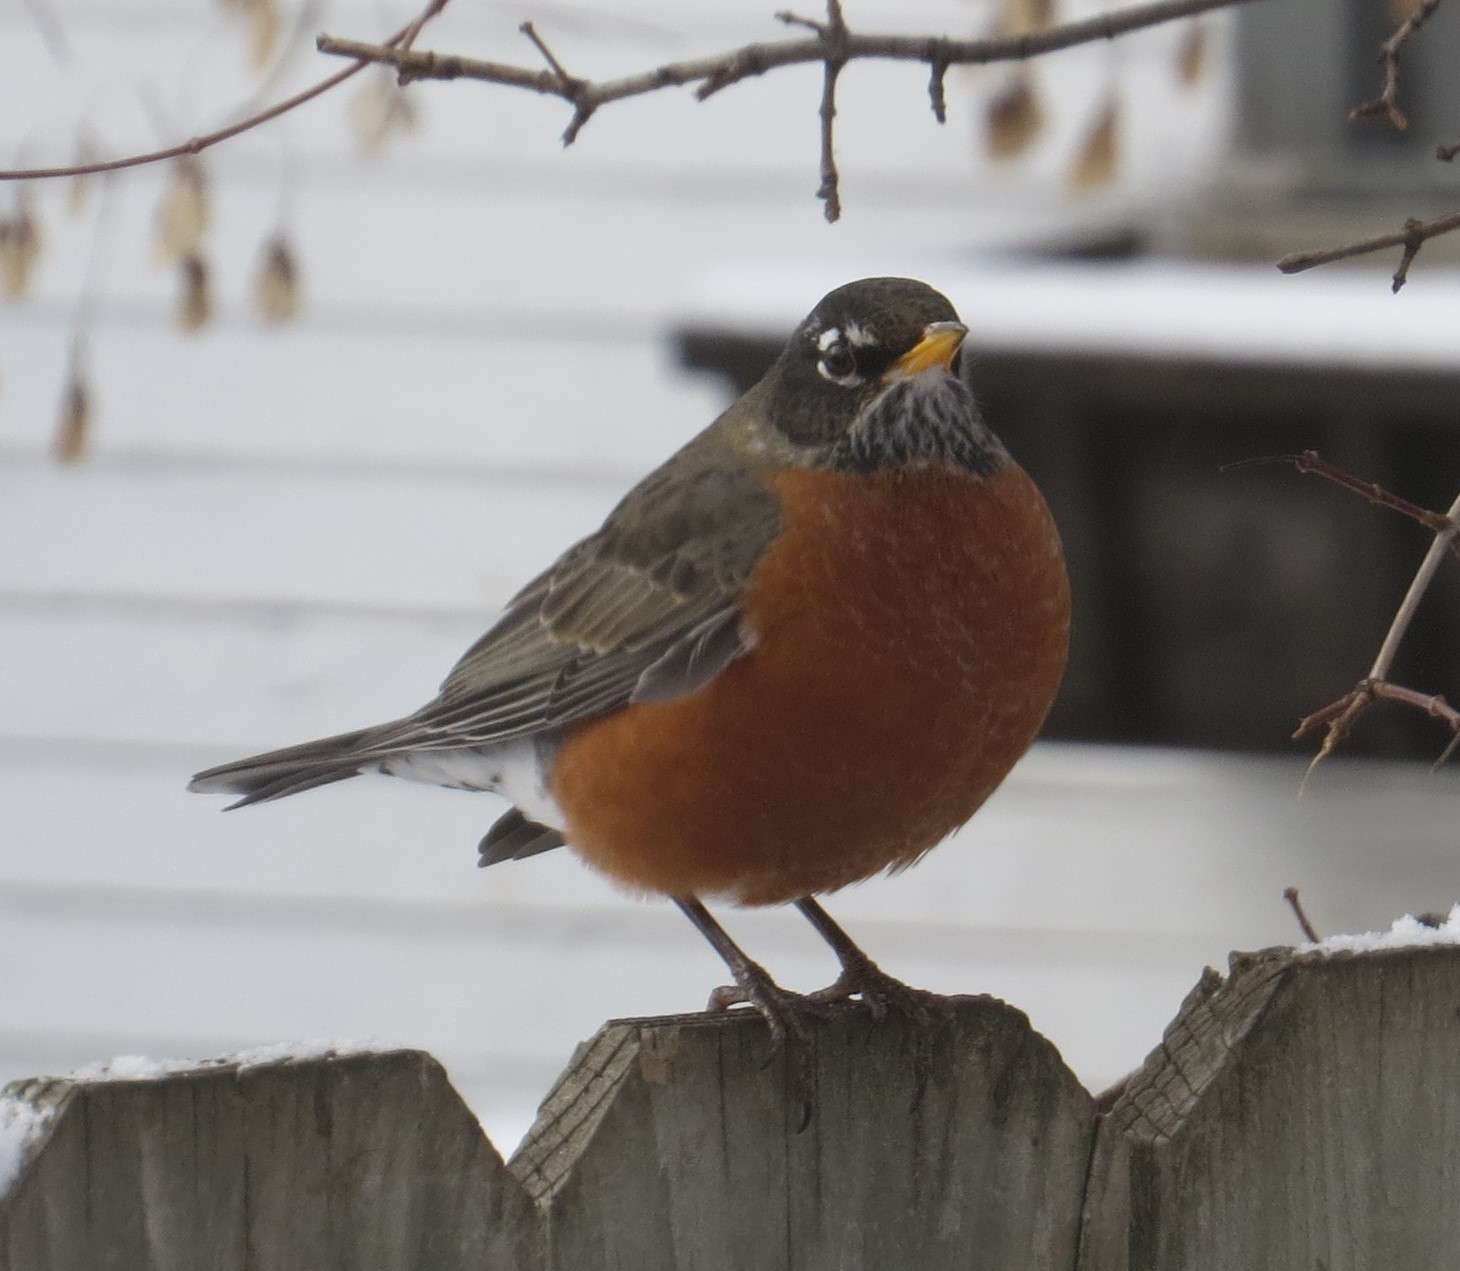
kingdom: Animalia
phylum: Chordata
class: Aves
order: Passeriformes
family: Turdidae
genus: Turdus
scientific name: Turdus migratorius
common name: American robin
